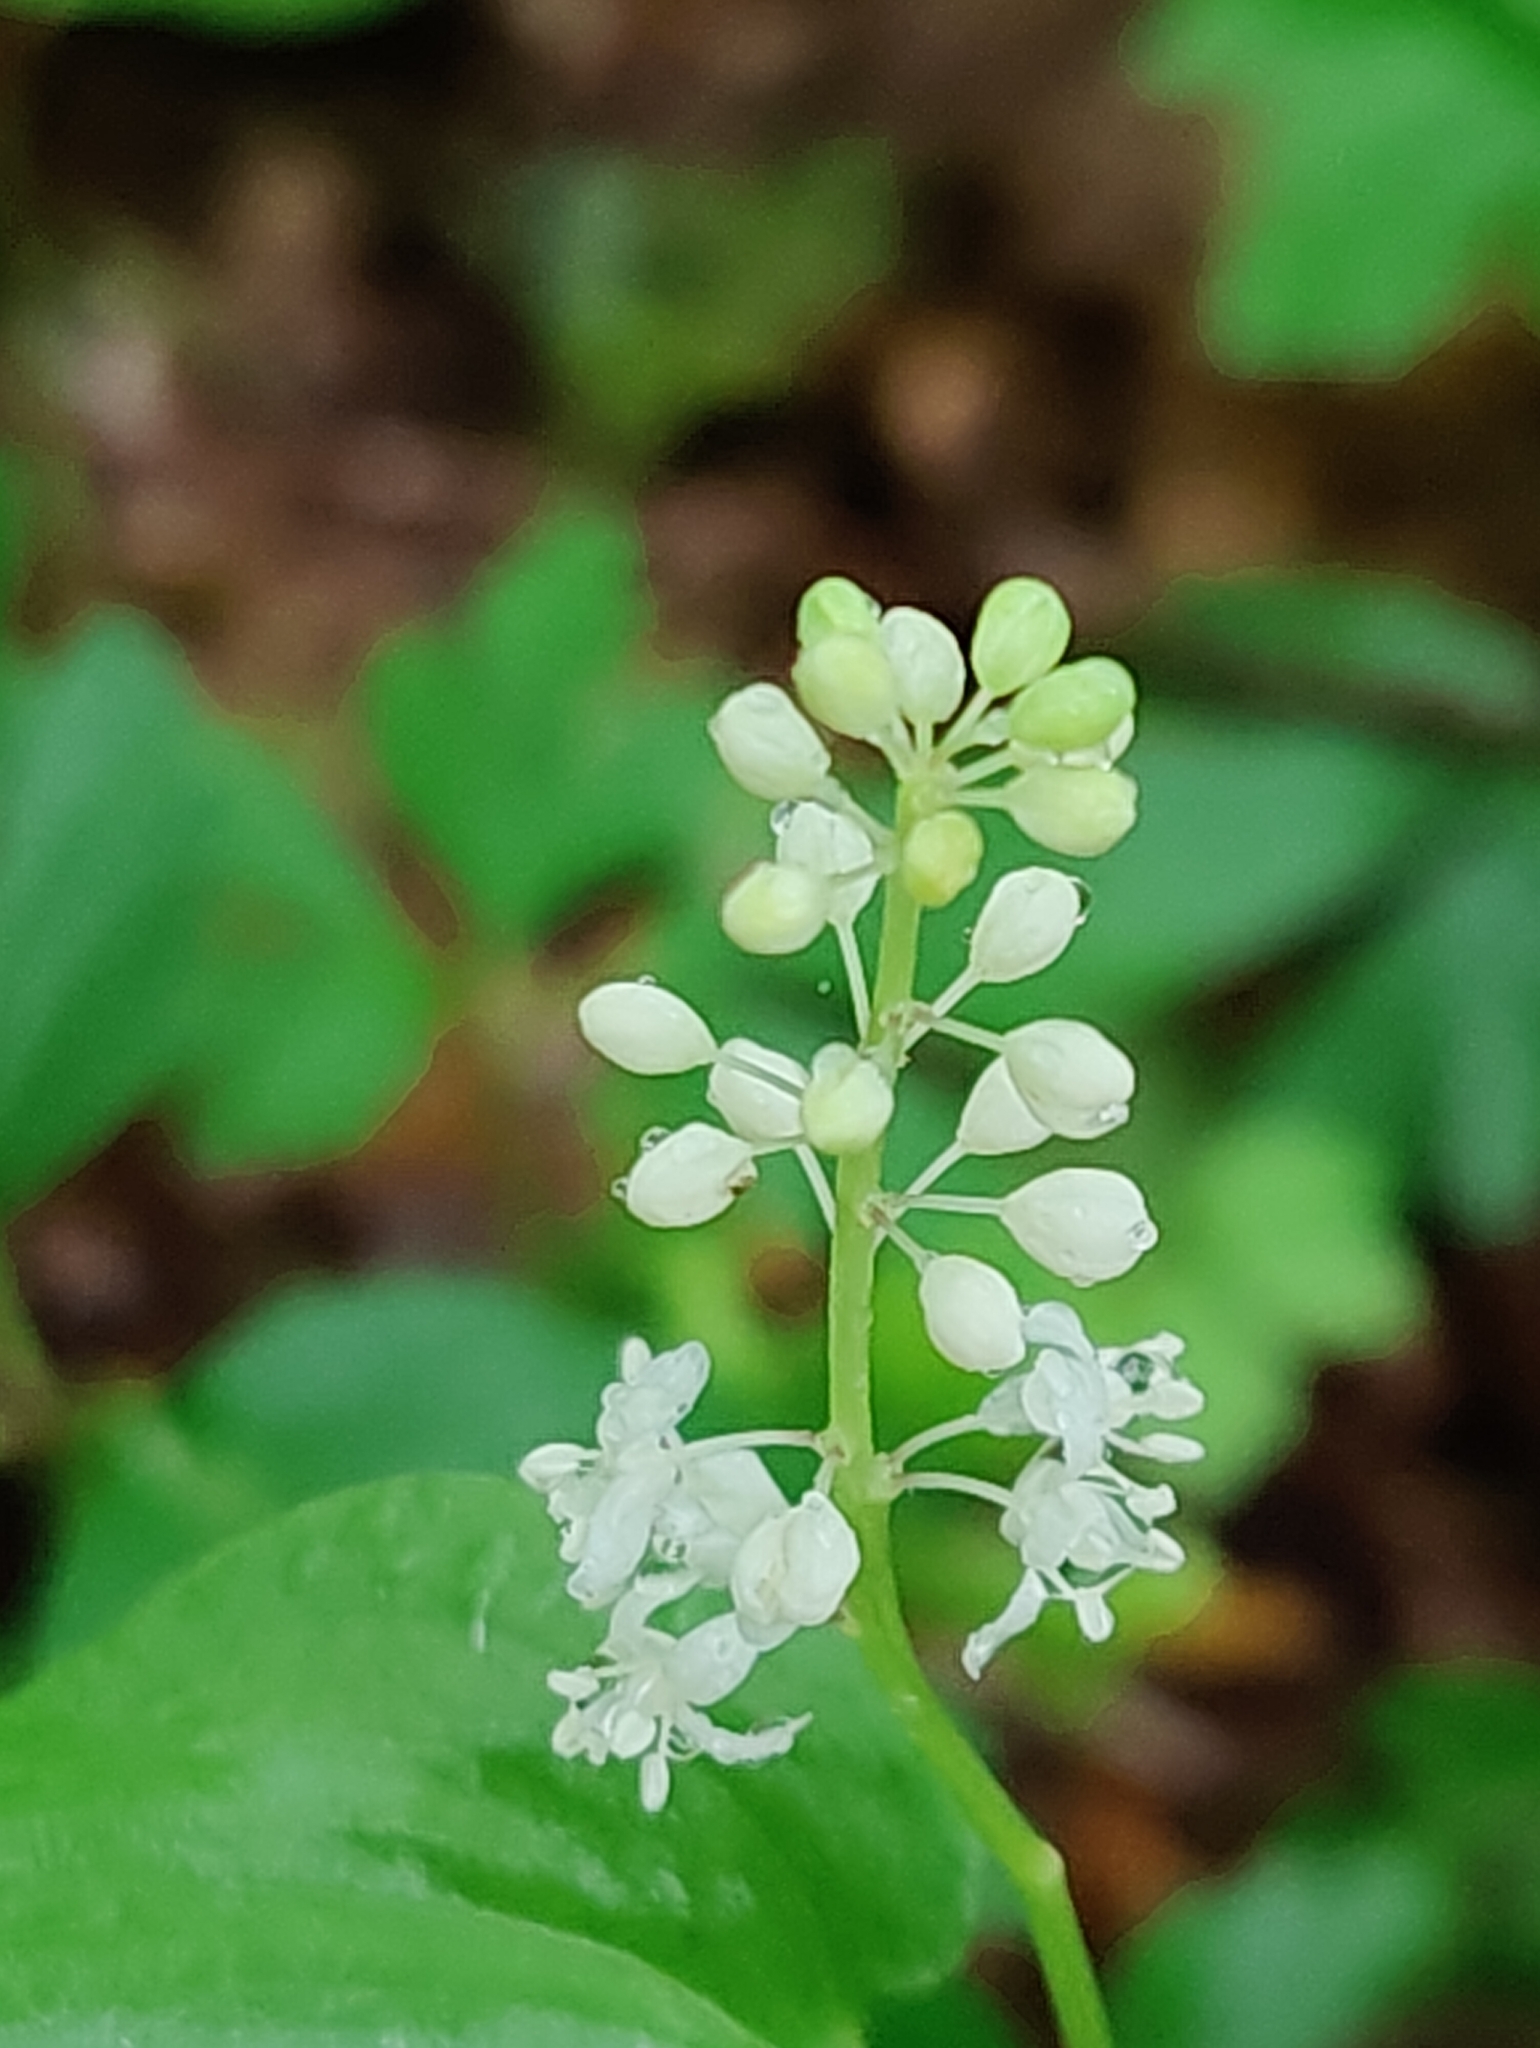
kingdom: Plantae
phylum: Tracheophyta
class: Liliopsida
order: Asparagales
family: Asparagaceae
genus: Maianthemum
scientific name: Maianthemum bifolium
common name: May lily
